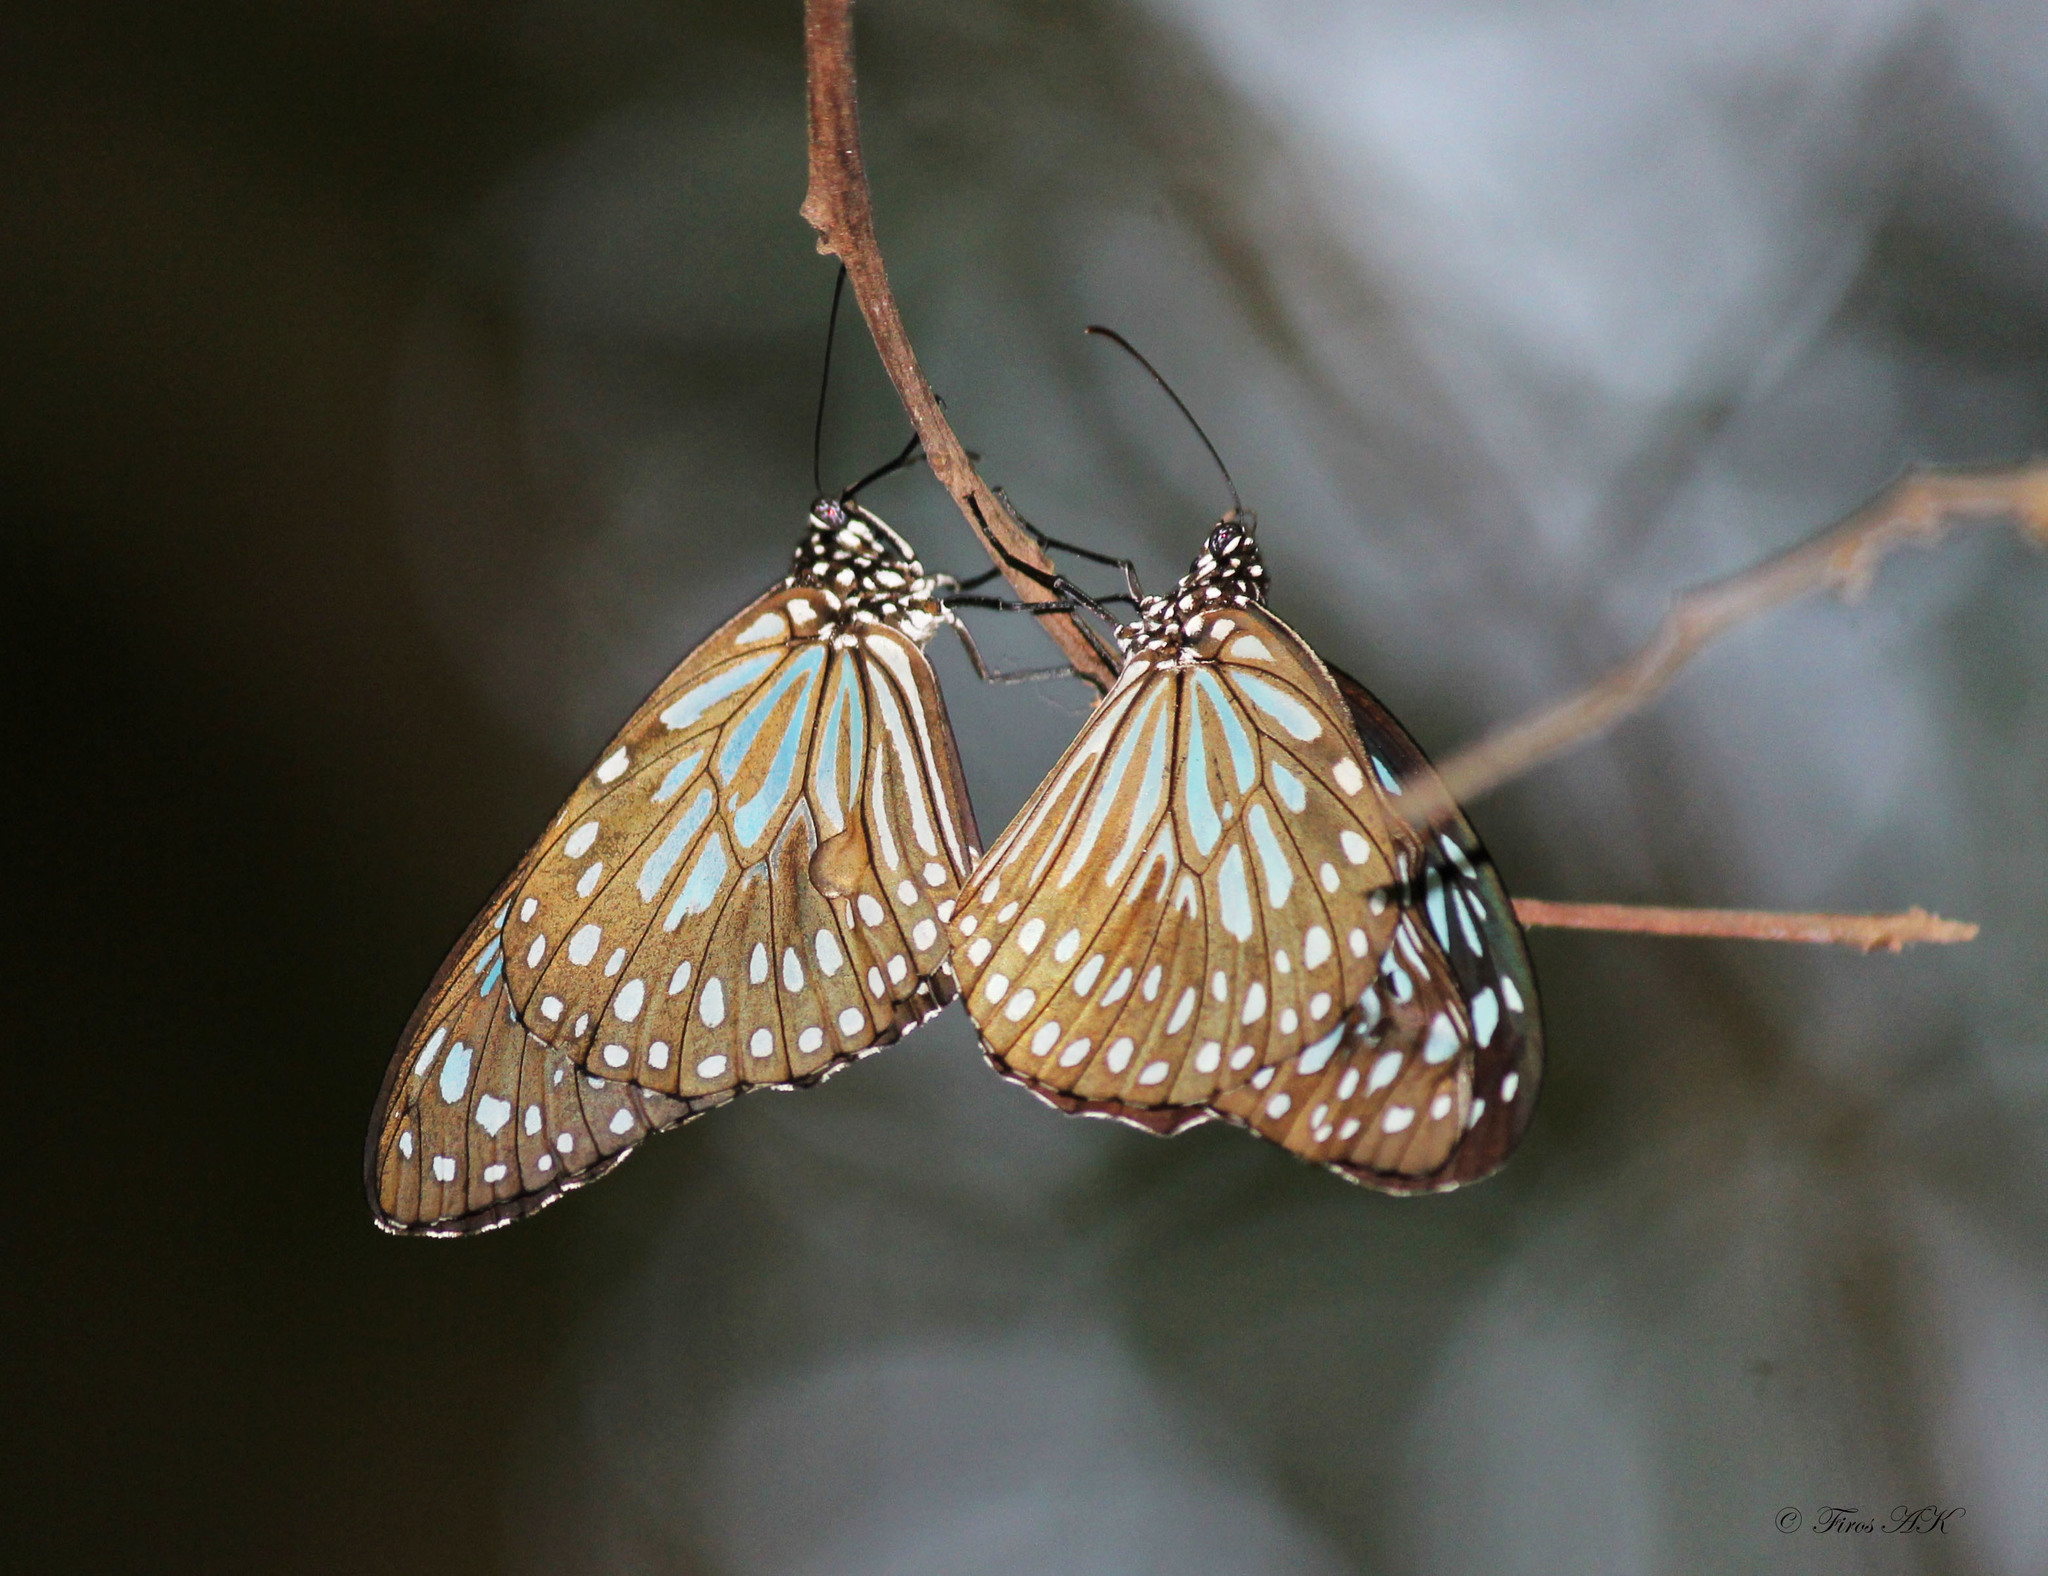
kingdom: Animalia
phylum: Arthropoda
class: Insecta
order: Lepidoptera
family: Nymphalidae
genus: Tirumala
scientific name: Tirumala septentrionis
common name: Dark blue tiger butterfly
